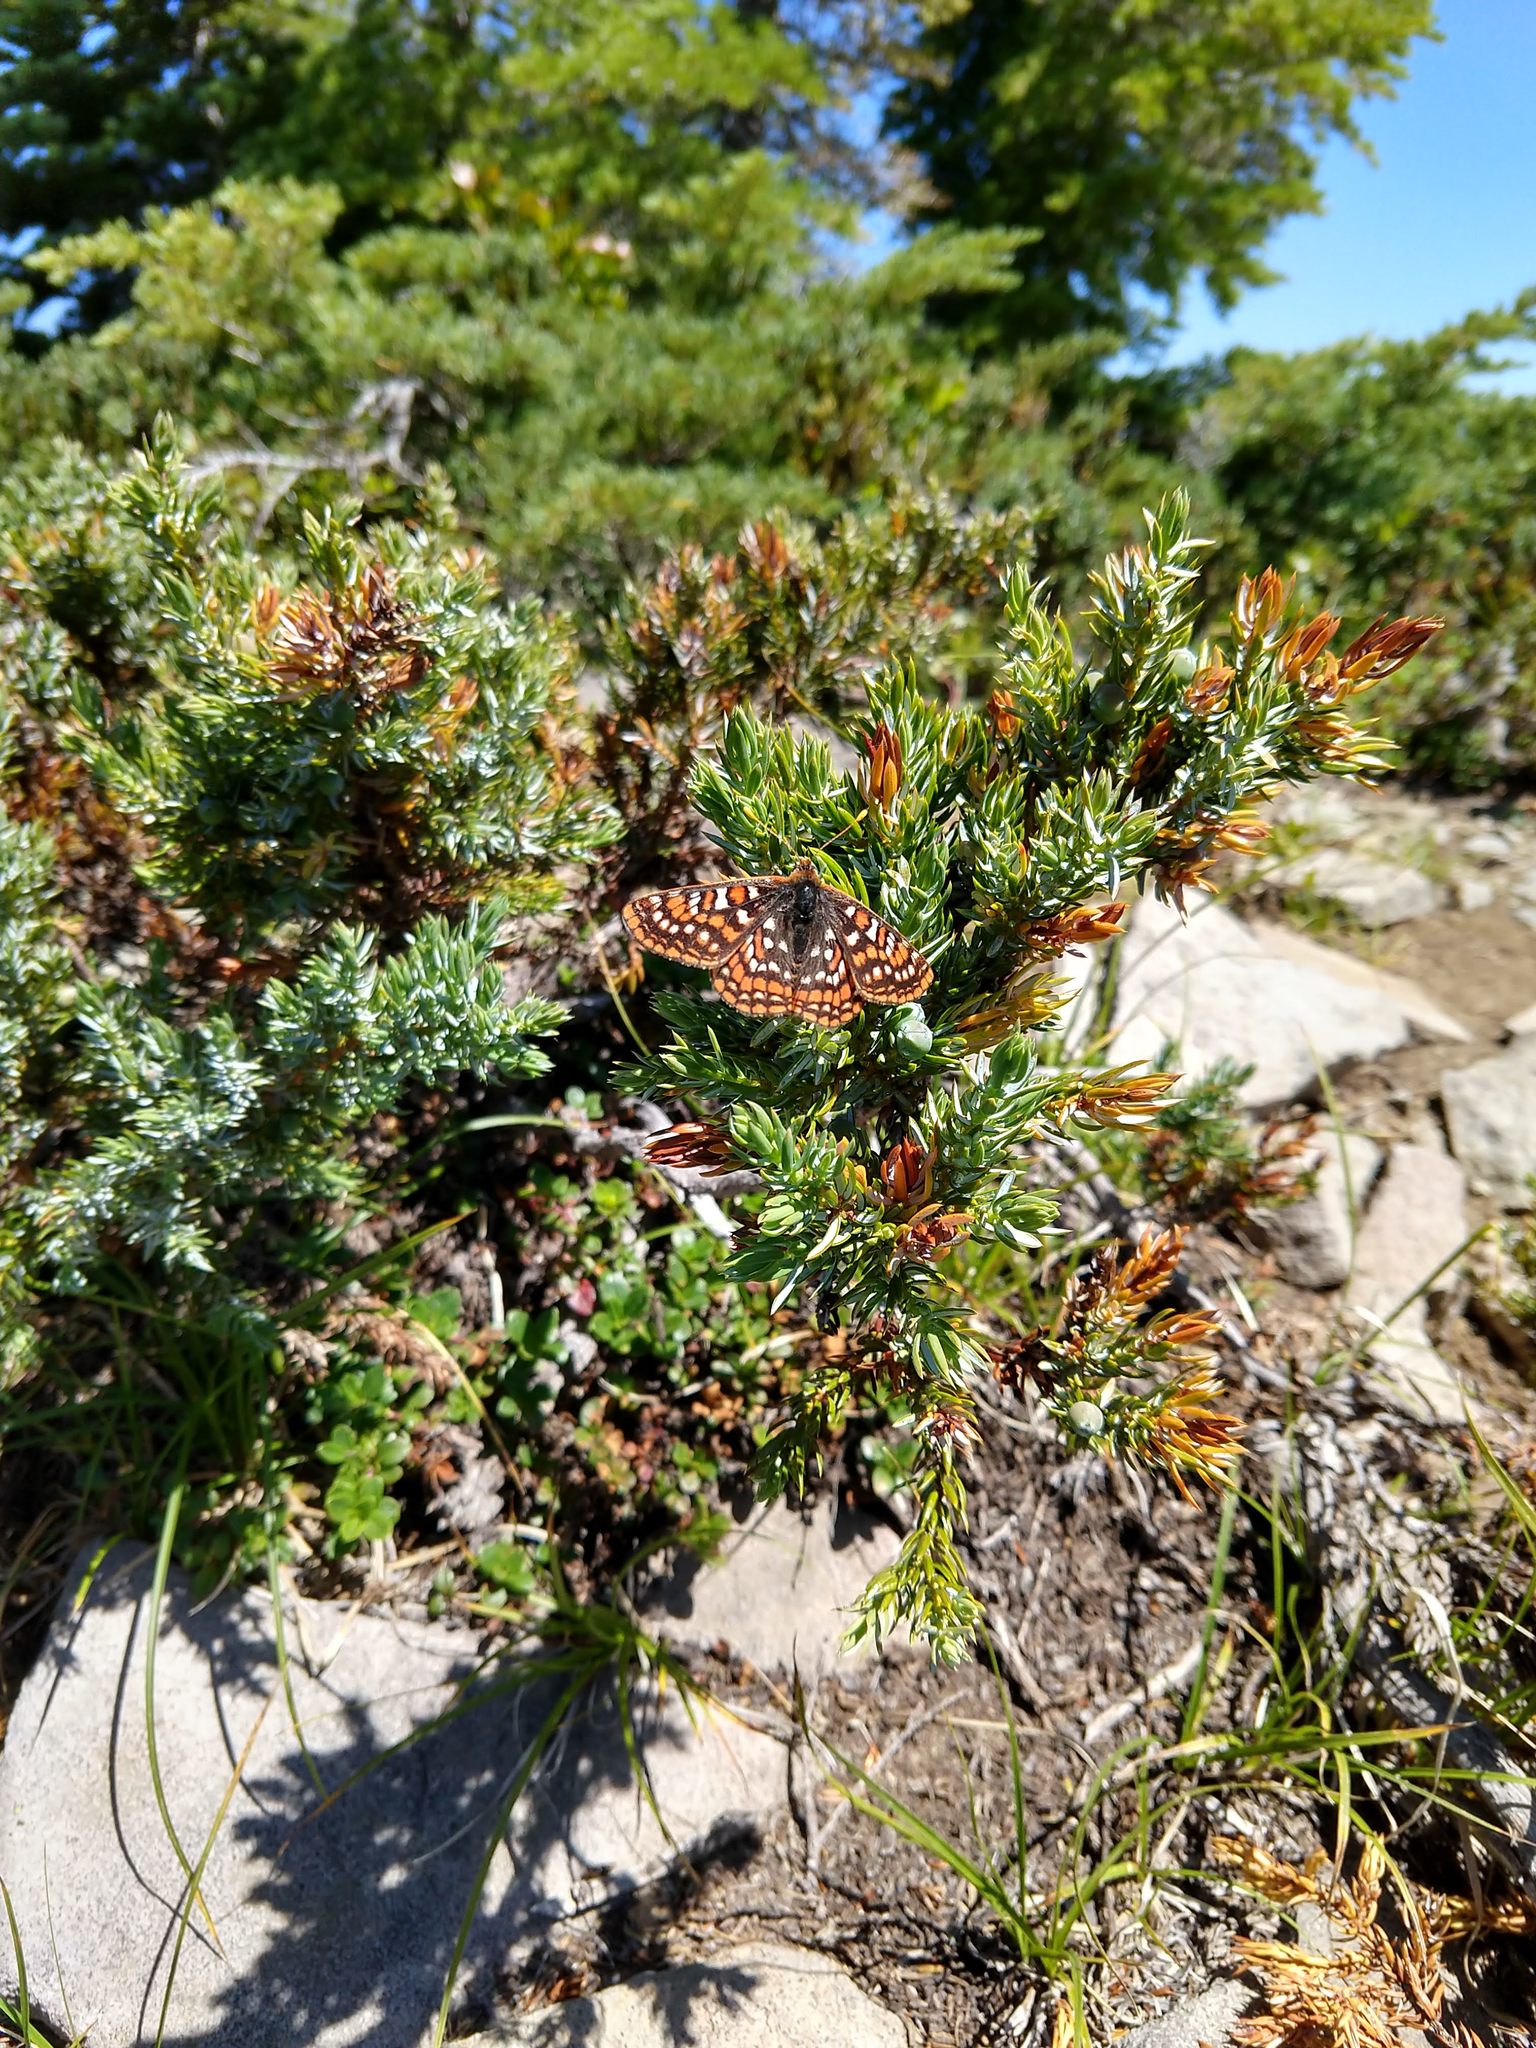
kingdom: Animalia
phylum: Arthropoda
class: Insecta
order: Lepidoptera
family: Nymphalidae
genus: Occidryas
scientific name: Occidryas editha
